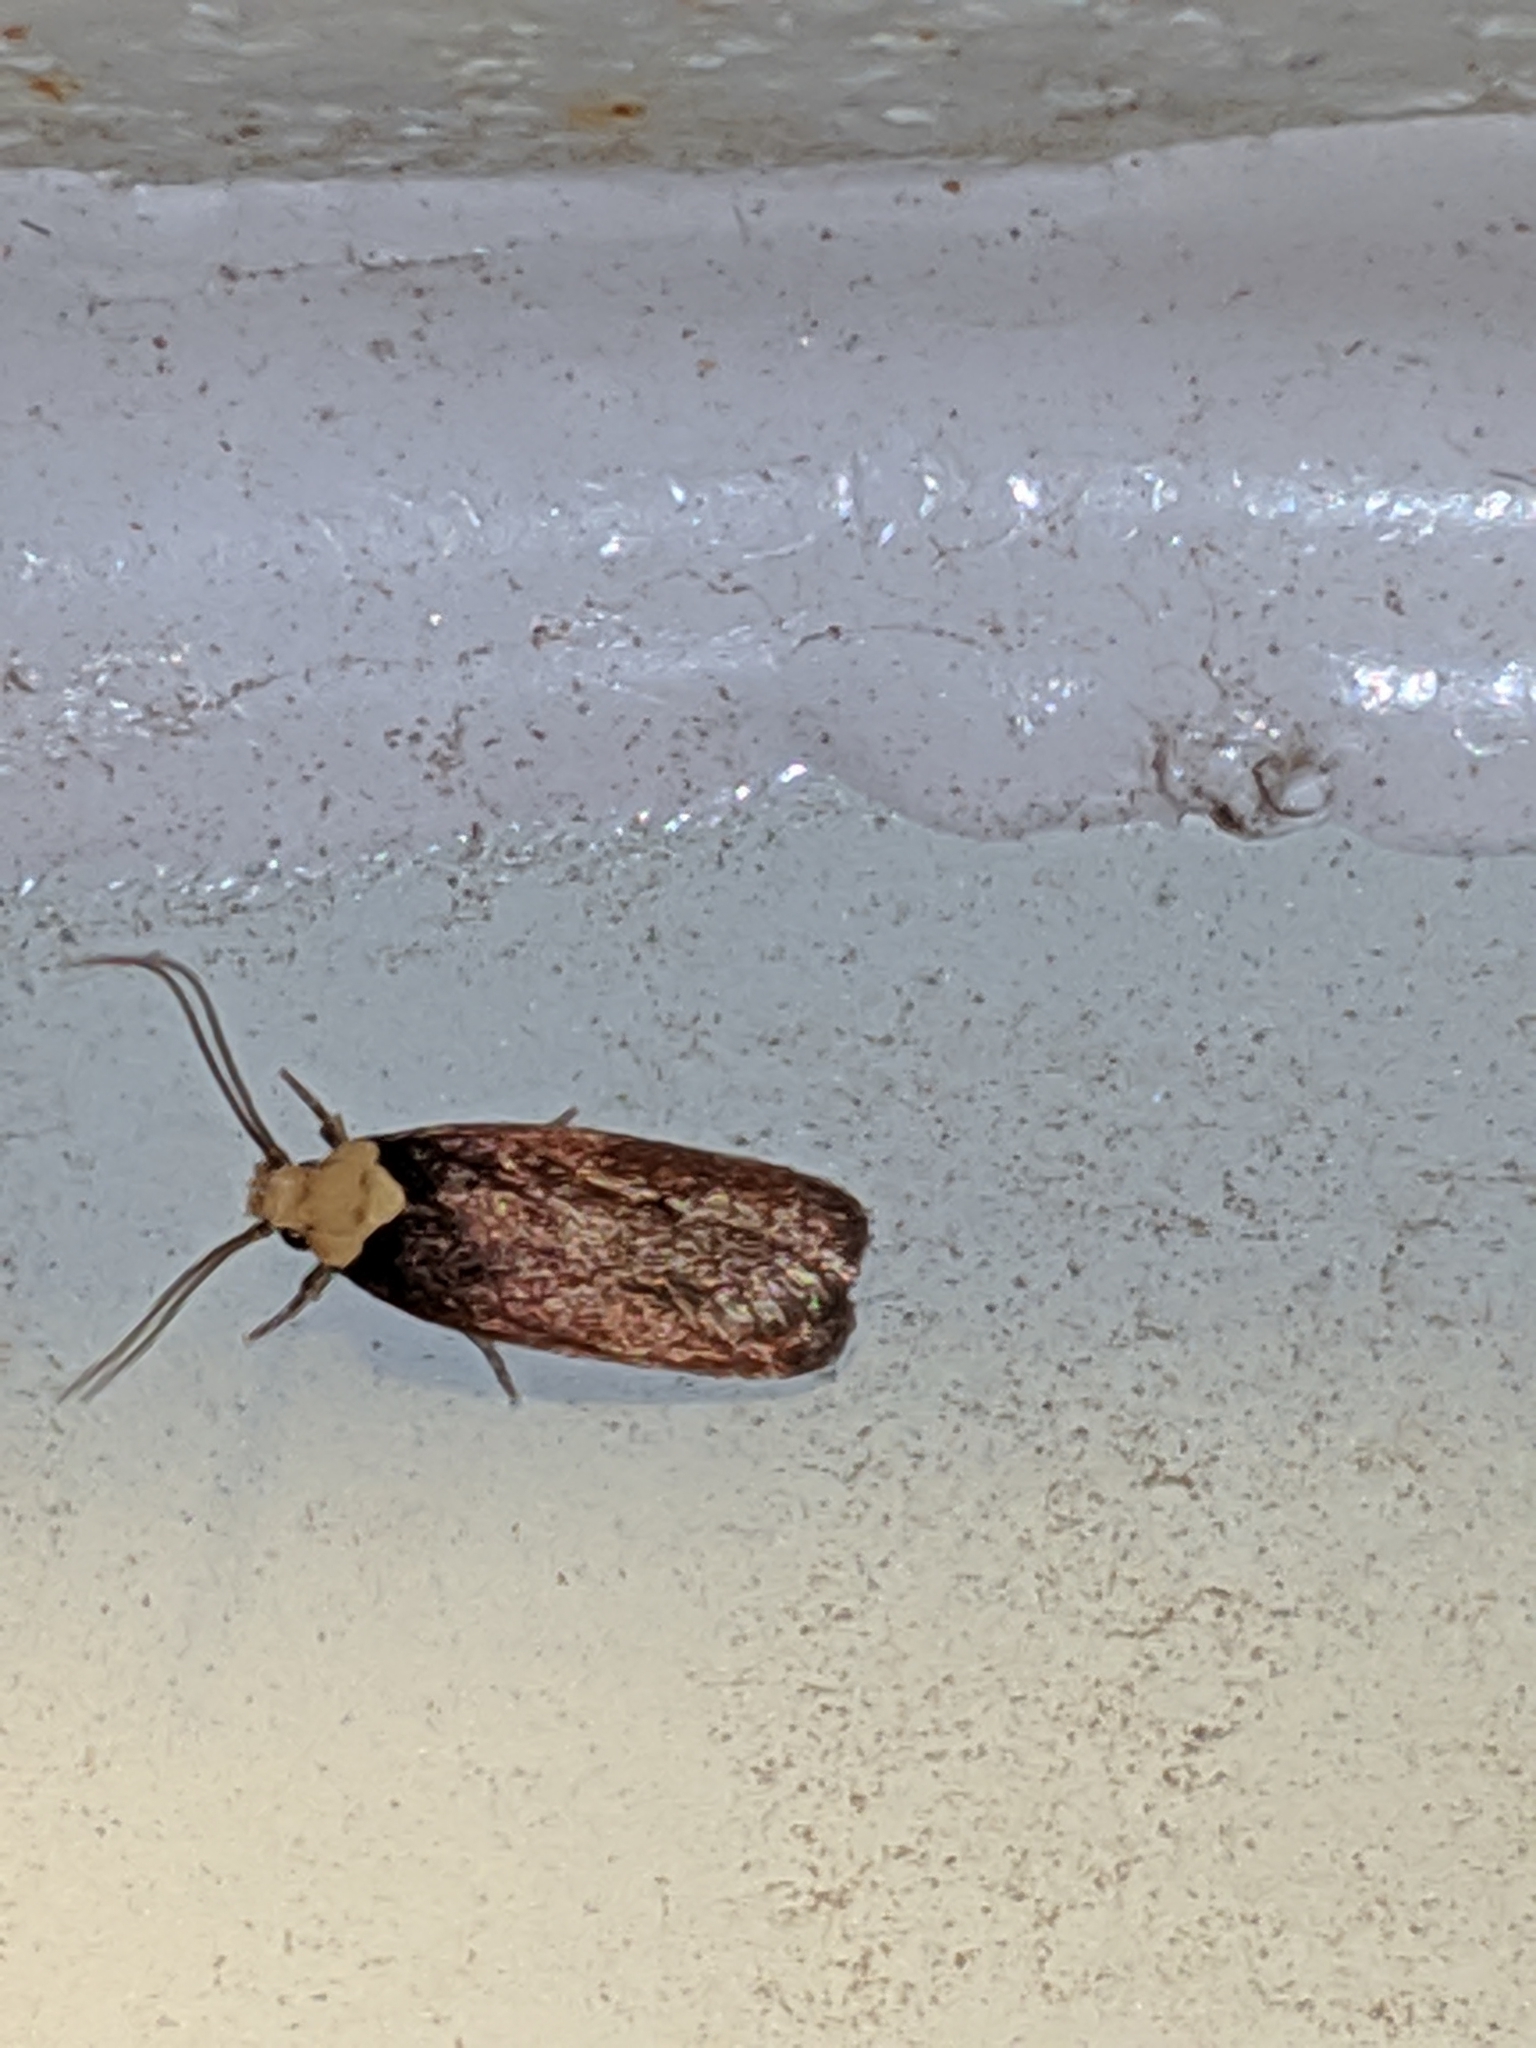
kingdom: Animalia
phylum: Arthropoda
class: Insecta
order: Lepidoptera
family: Depressariidae
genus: Depressaria
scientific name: Depressaria depressana
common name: Lost flat-body
